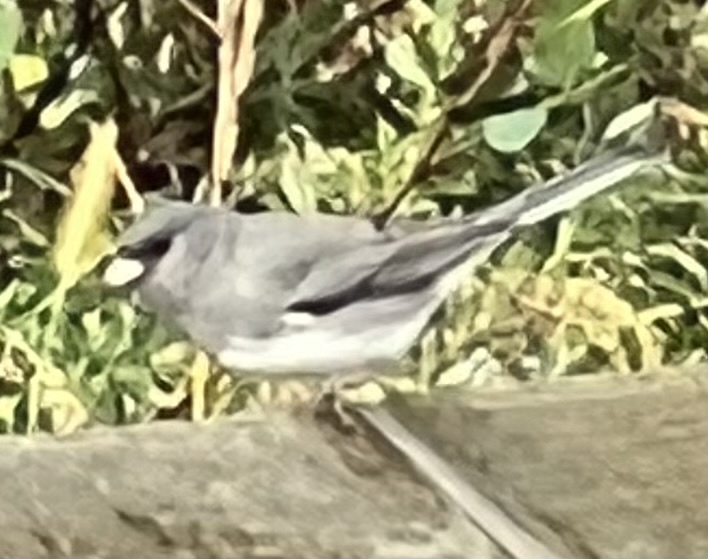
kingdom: Animalia
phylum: Chordata
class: Aves
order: Passeriformes
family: Passerellidae
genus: Junco
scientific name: Junco hyemalis
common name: Dark-eyed junco
